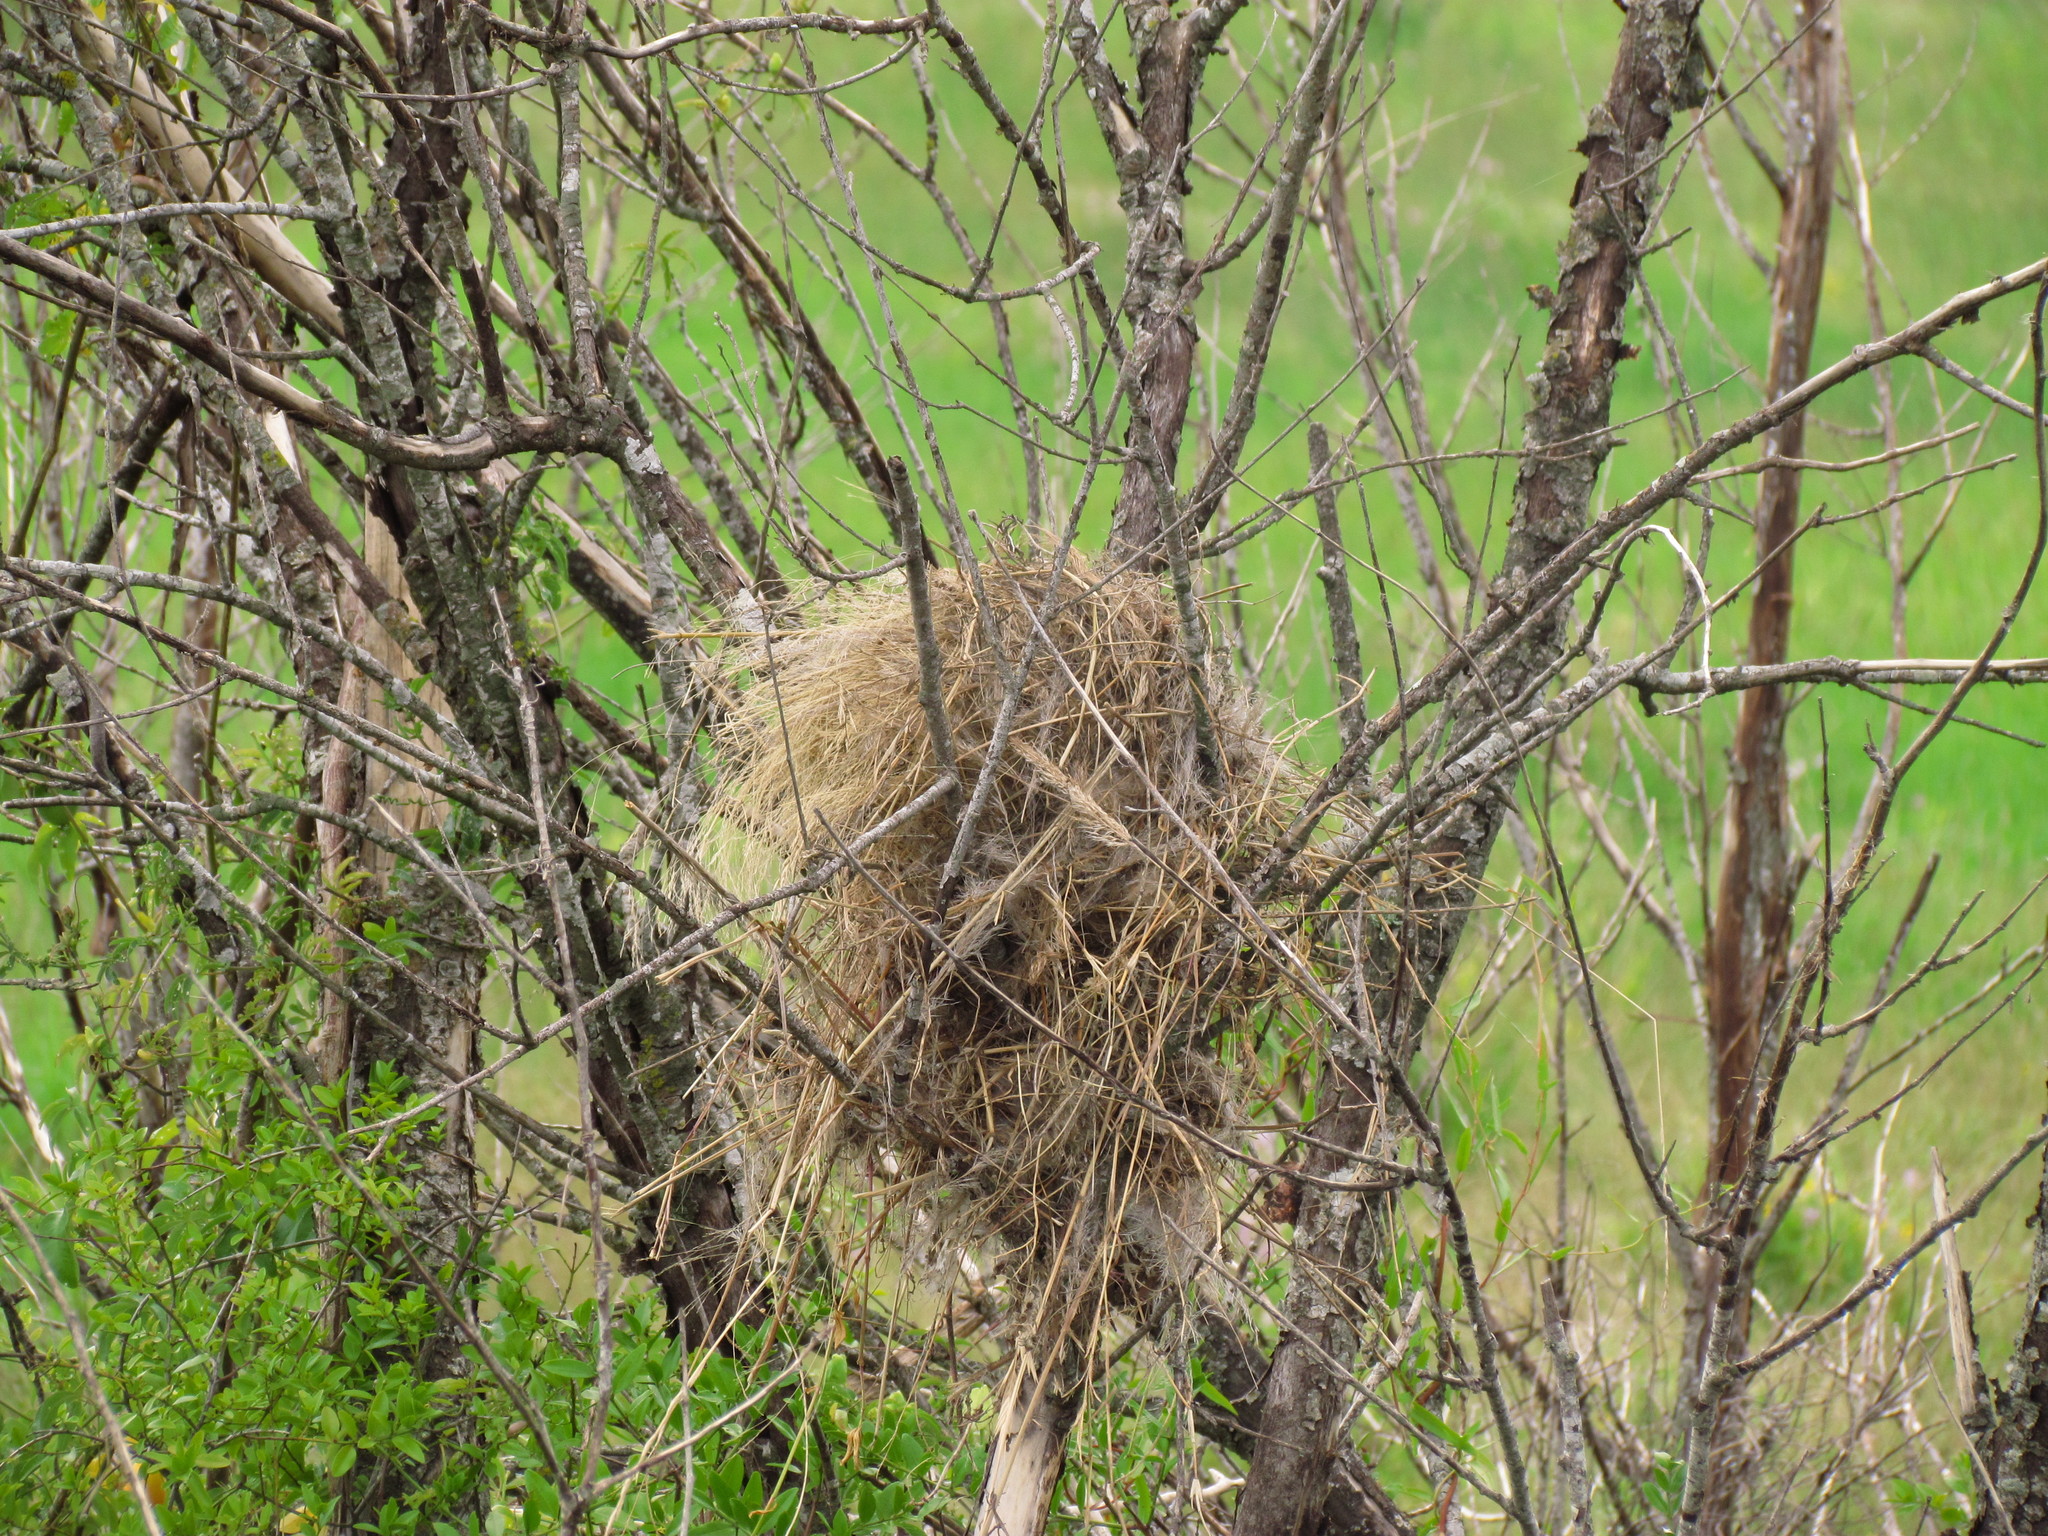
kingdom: Animalia
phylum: Chordata
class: Aves
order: Passeriformes
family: Tyrannidae
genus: Pitangus
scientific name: Pitangus sulphuratus
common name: Great kiskadee
